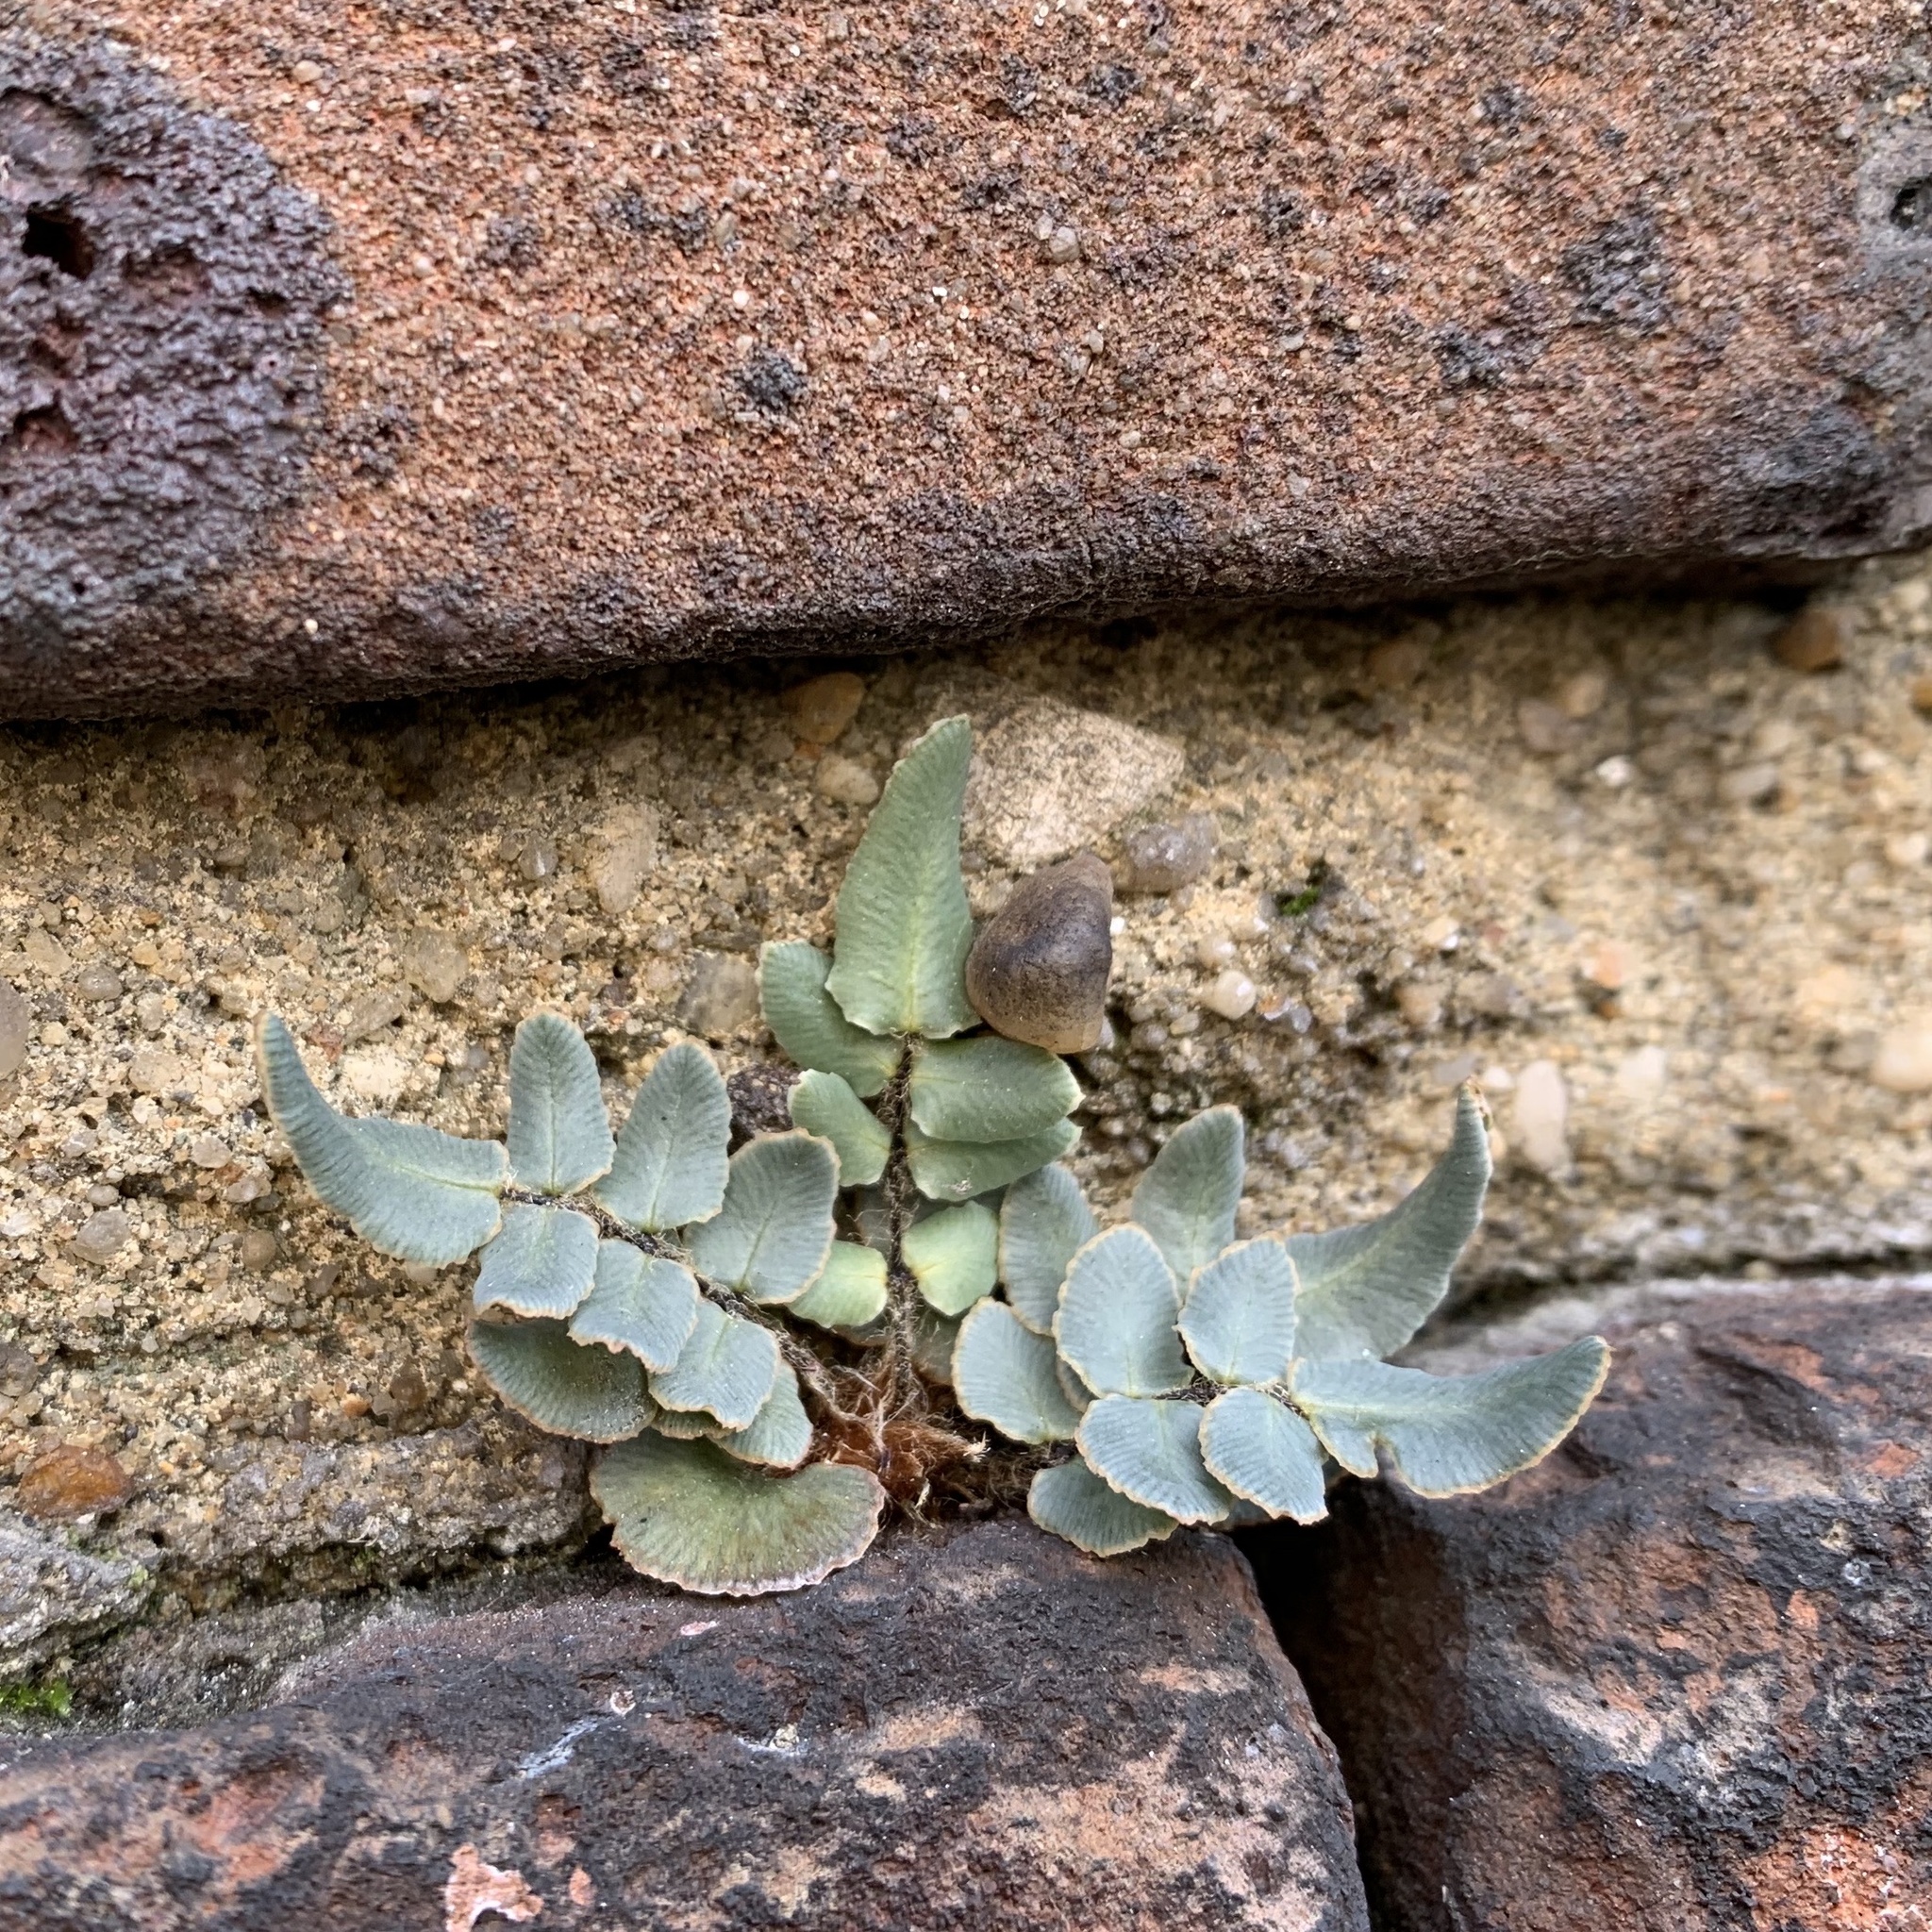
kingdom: Plantae
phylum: Tracheophyta
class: Polypodiopsida
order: Polypodiales
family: Pteridaceae
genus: Pellaea
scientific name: Pellaea atropurpurea
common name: Hairy cliffbrake
